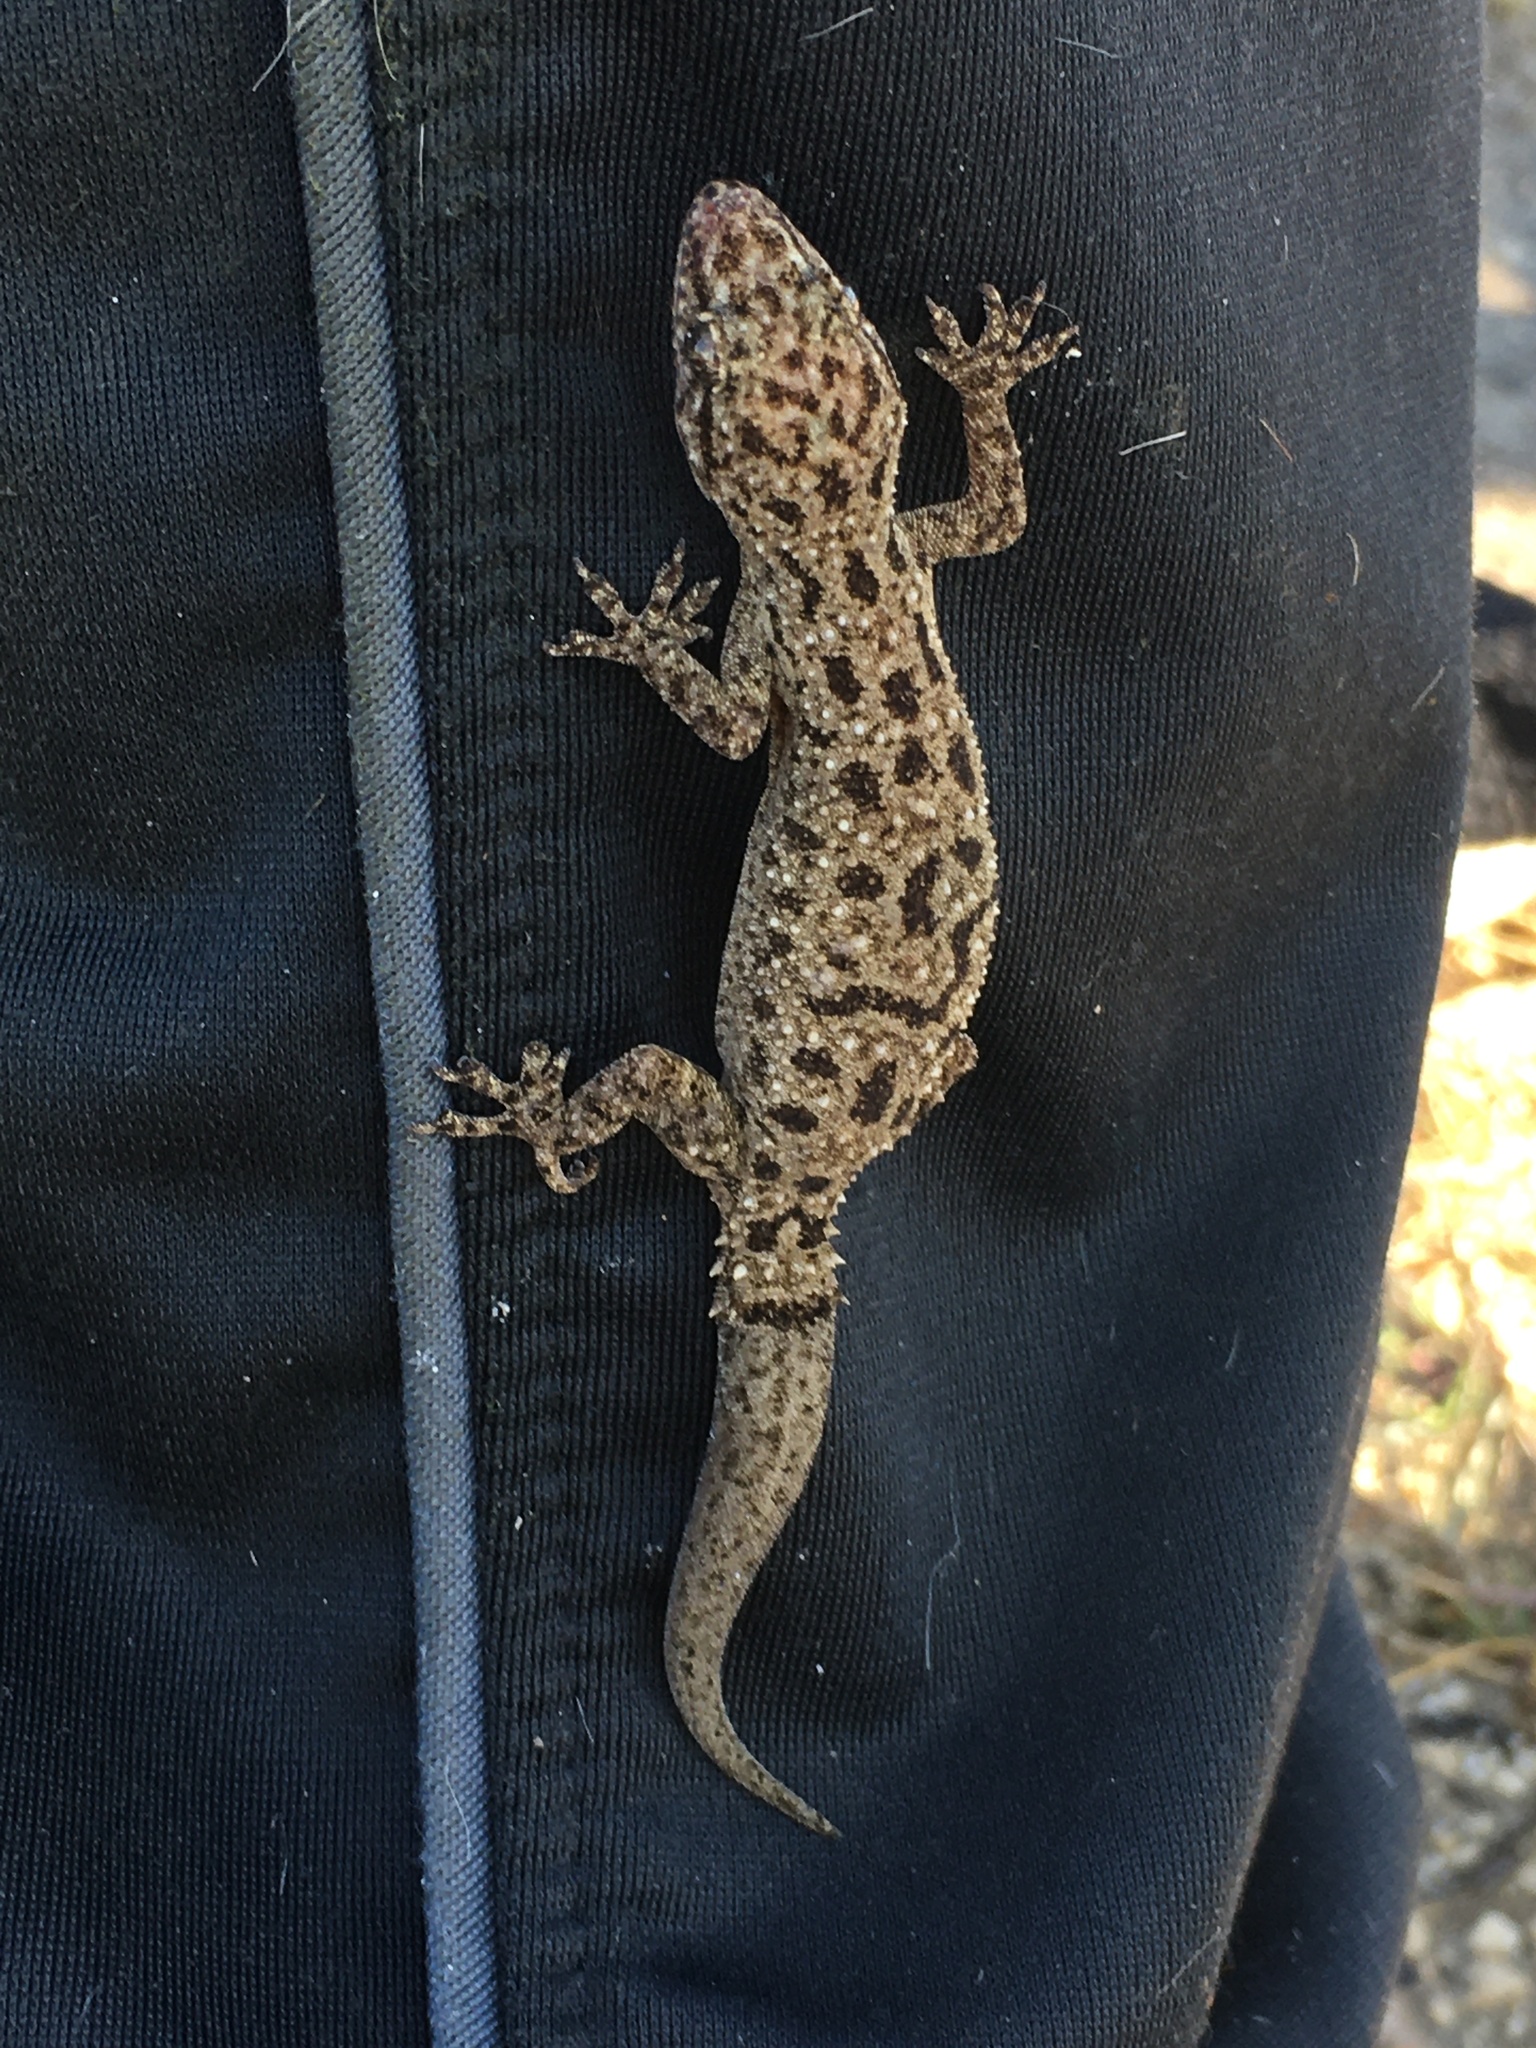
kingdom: Animalia
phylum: Chordata
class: Squamata
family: Gekkonidae
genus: Hemidactylus
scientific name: Hemidactylus parvimaculatus
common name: Spotted house gecko
